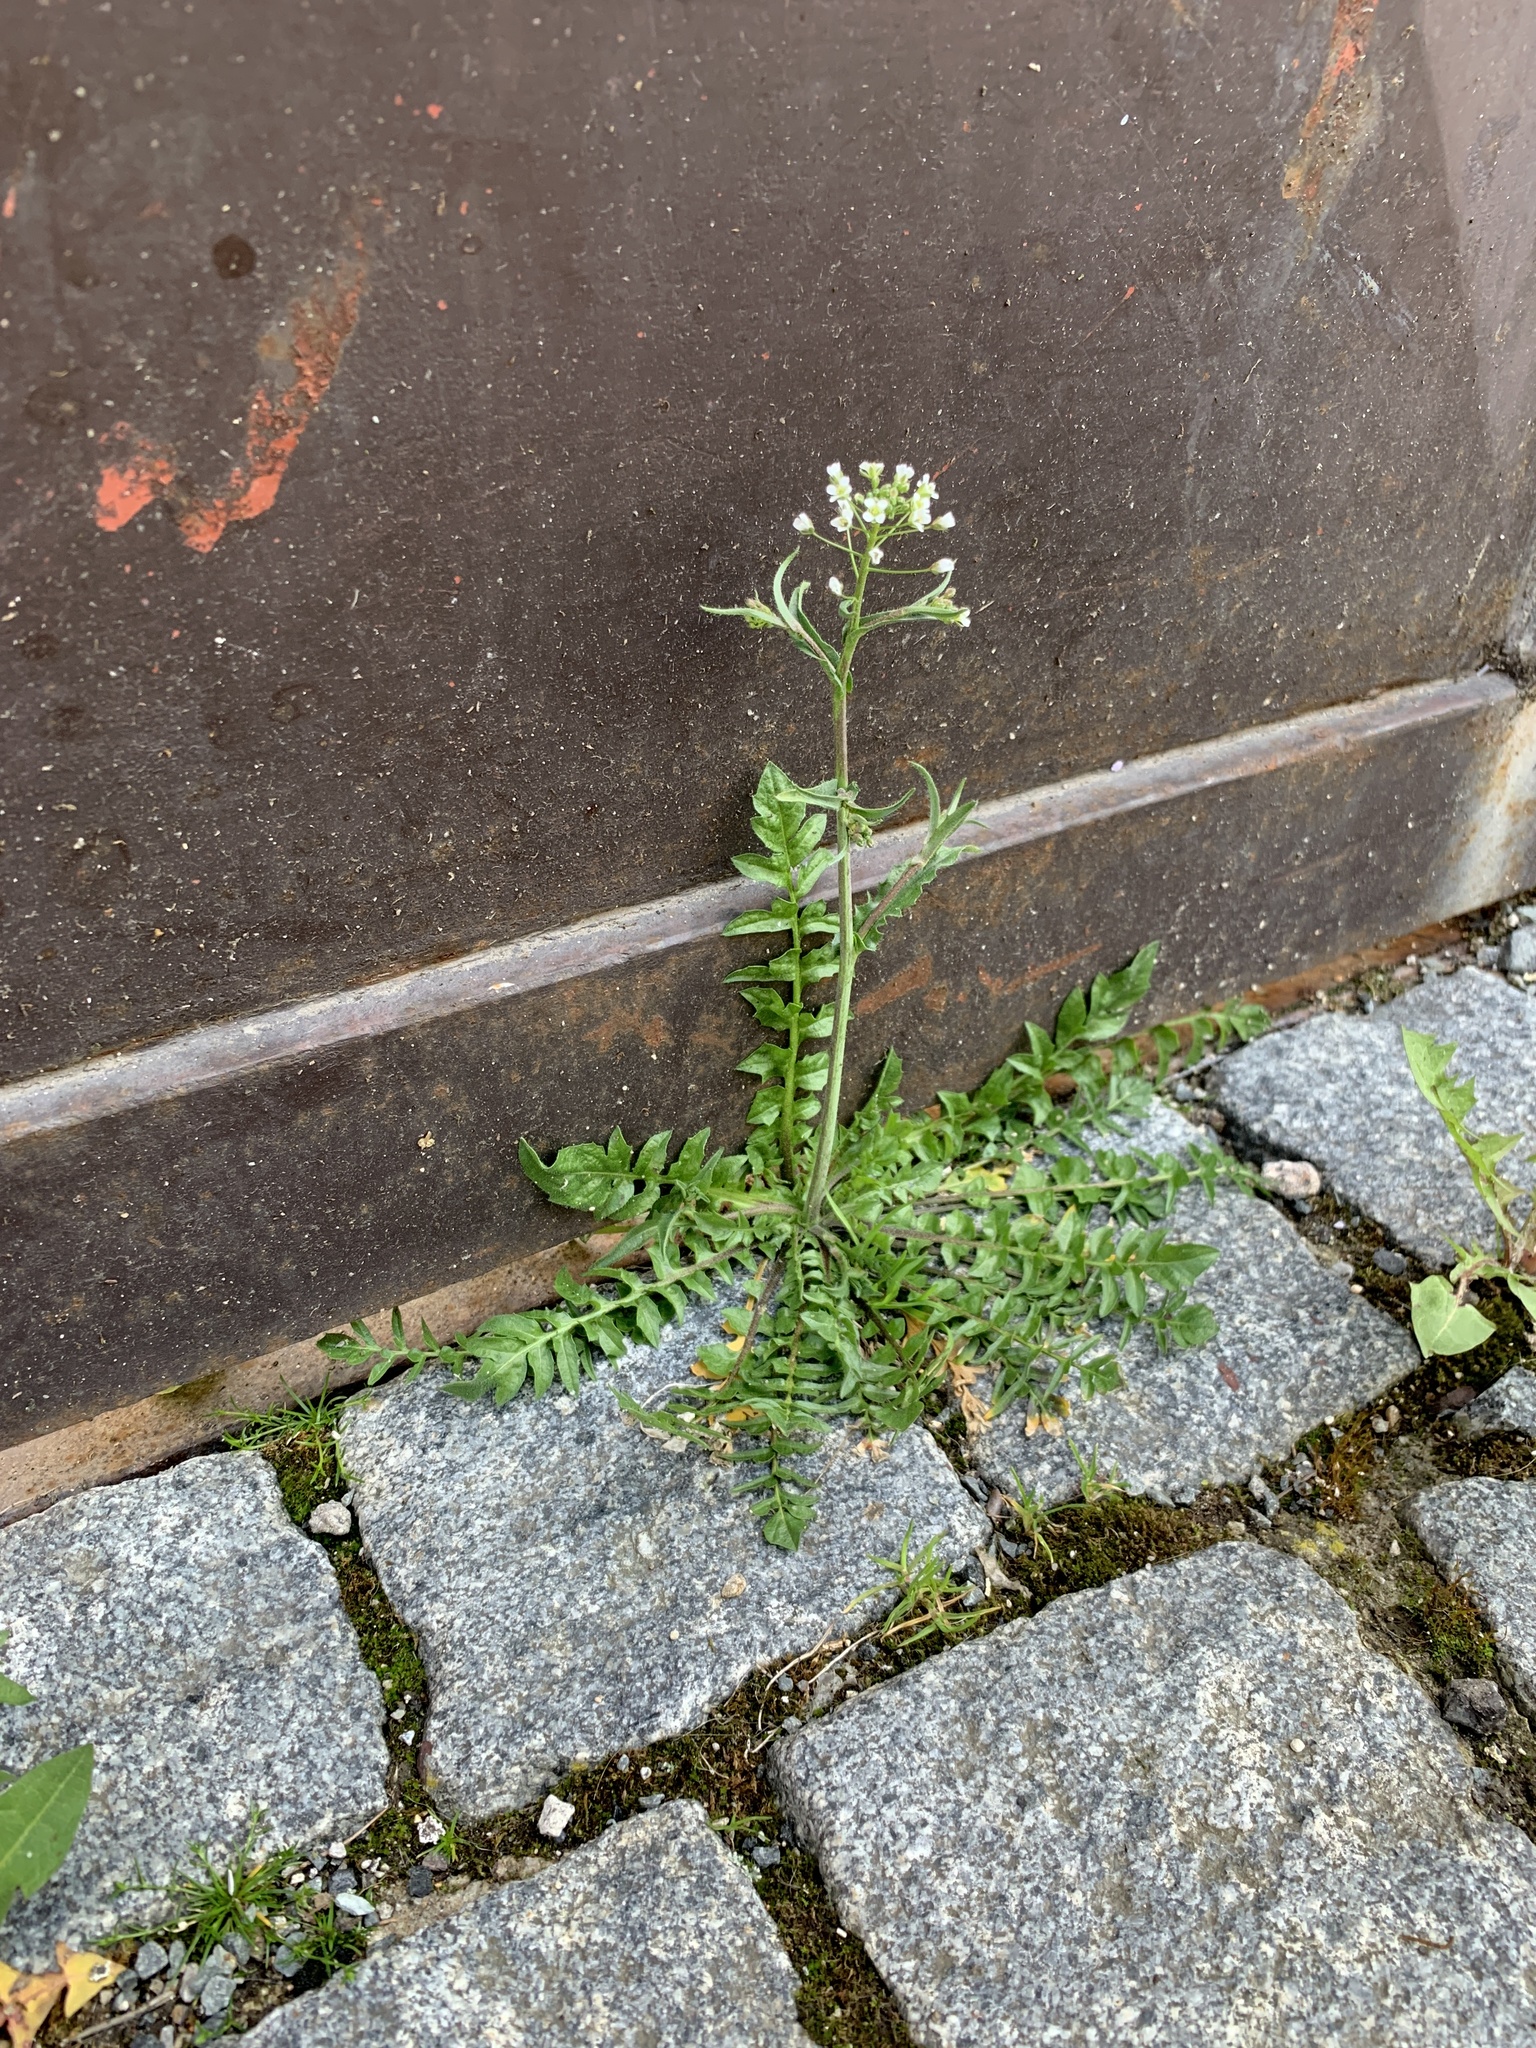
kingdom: Plantae
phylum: Tracheophyta
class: Magnoliopsida
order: Brassicales
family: Brassicaceae
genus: Capsella
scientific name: Capsella bursa-pastoris
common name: Shepherd's purse
